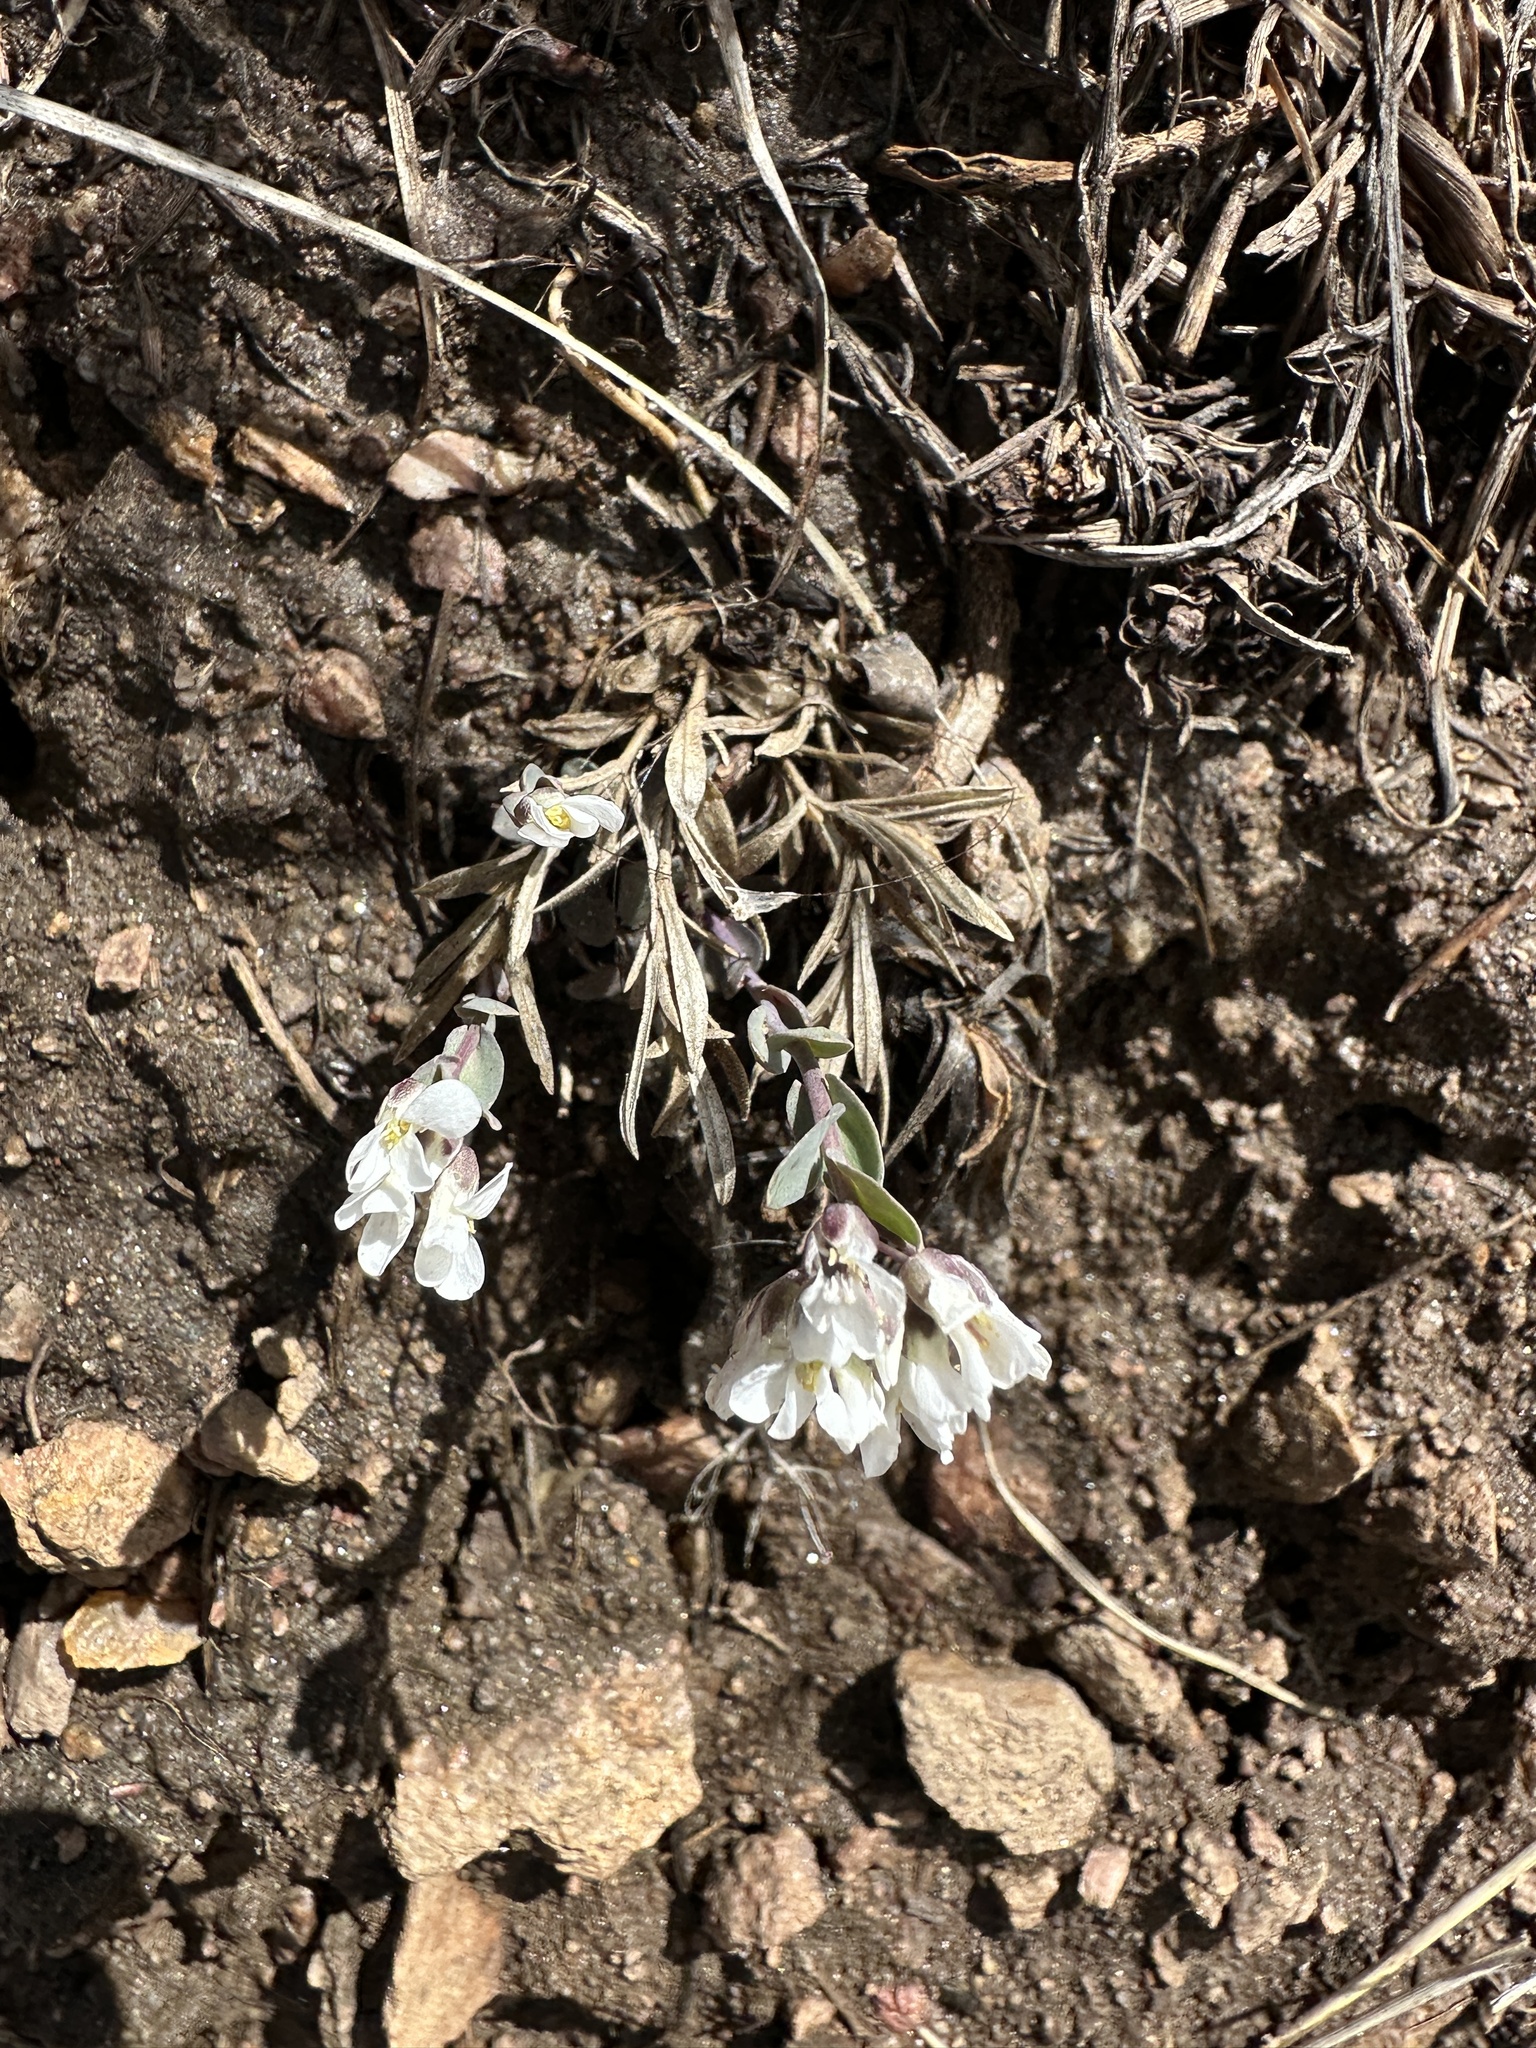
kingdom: Plantae
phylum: Tracheophyta
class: Magnoliopsida
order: Brassicales
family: Brassicaceae
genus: Noccaea
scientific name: Noccaea fendleri
